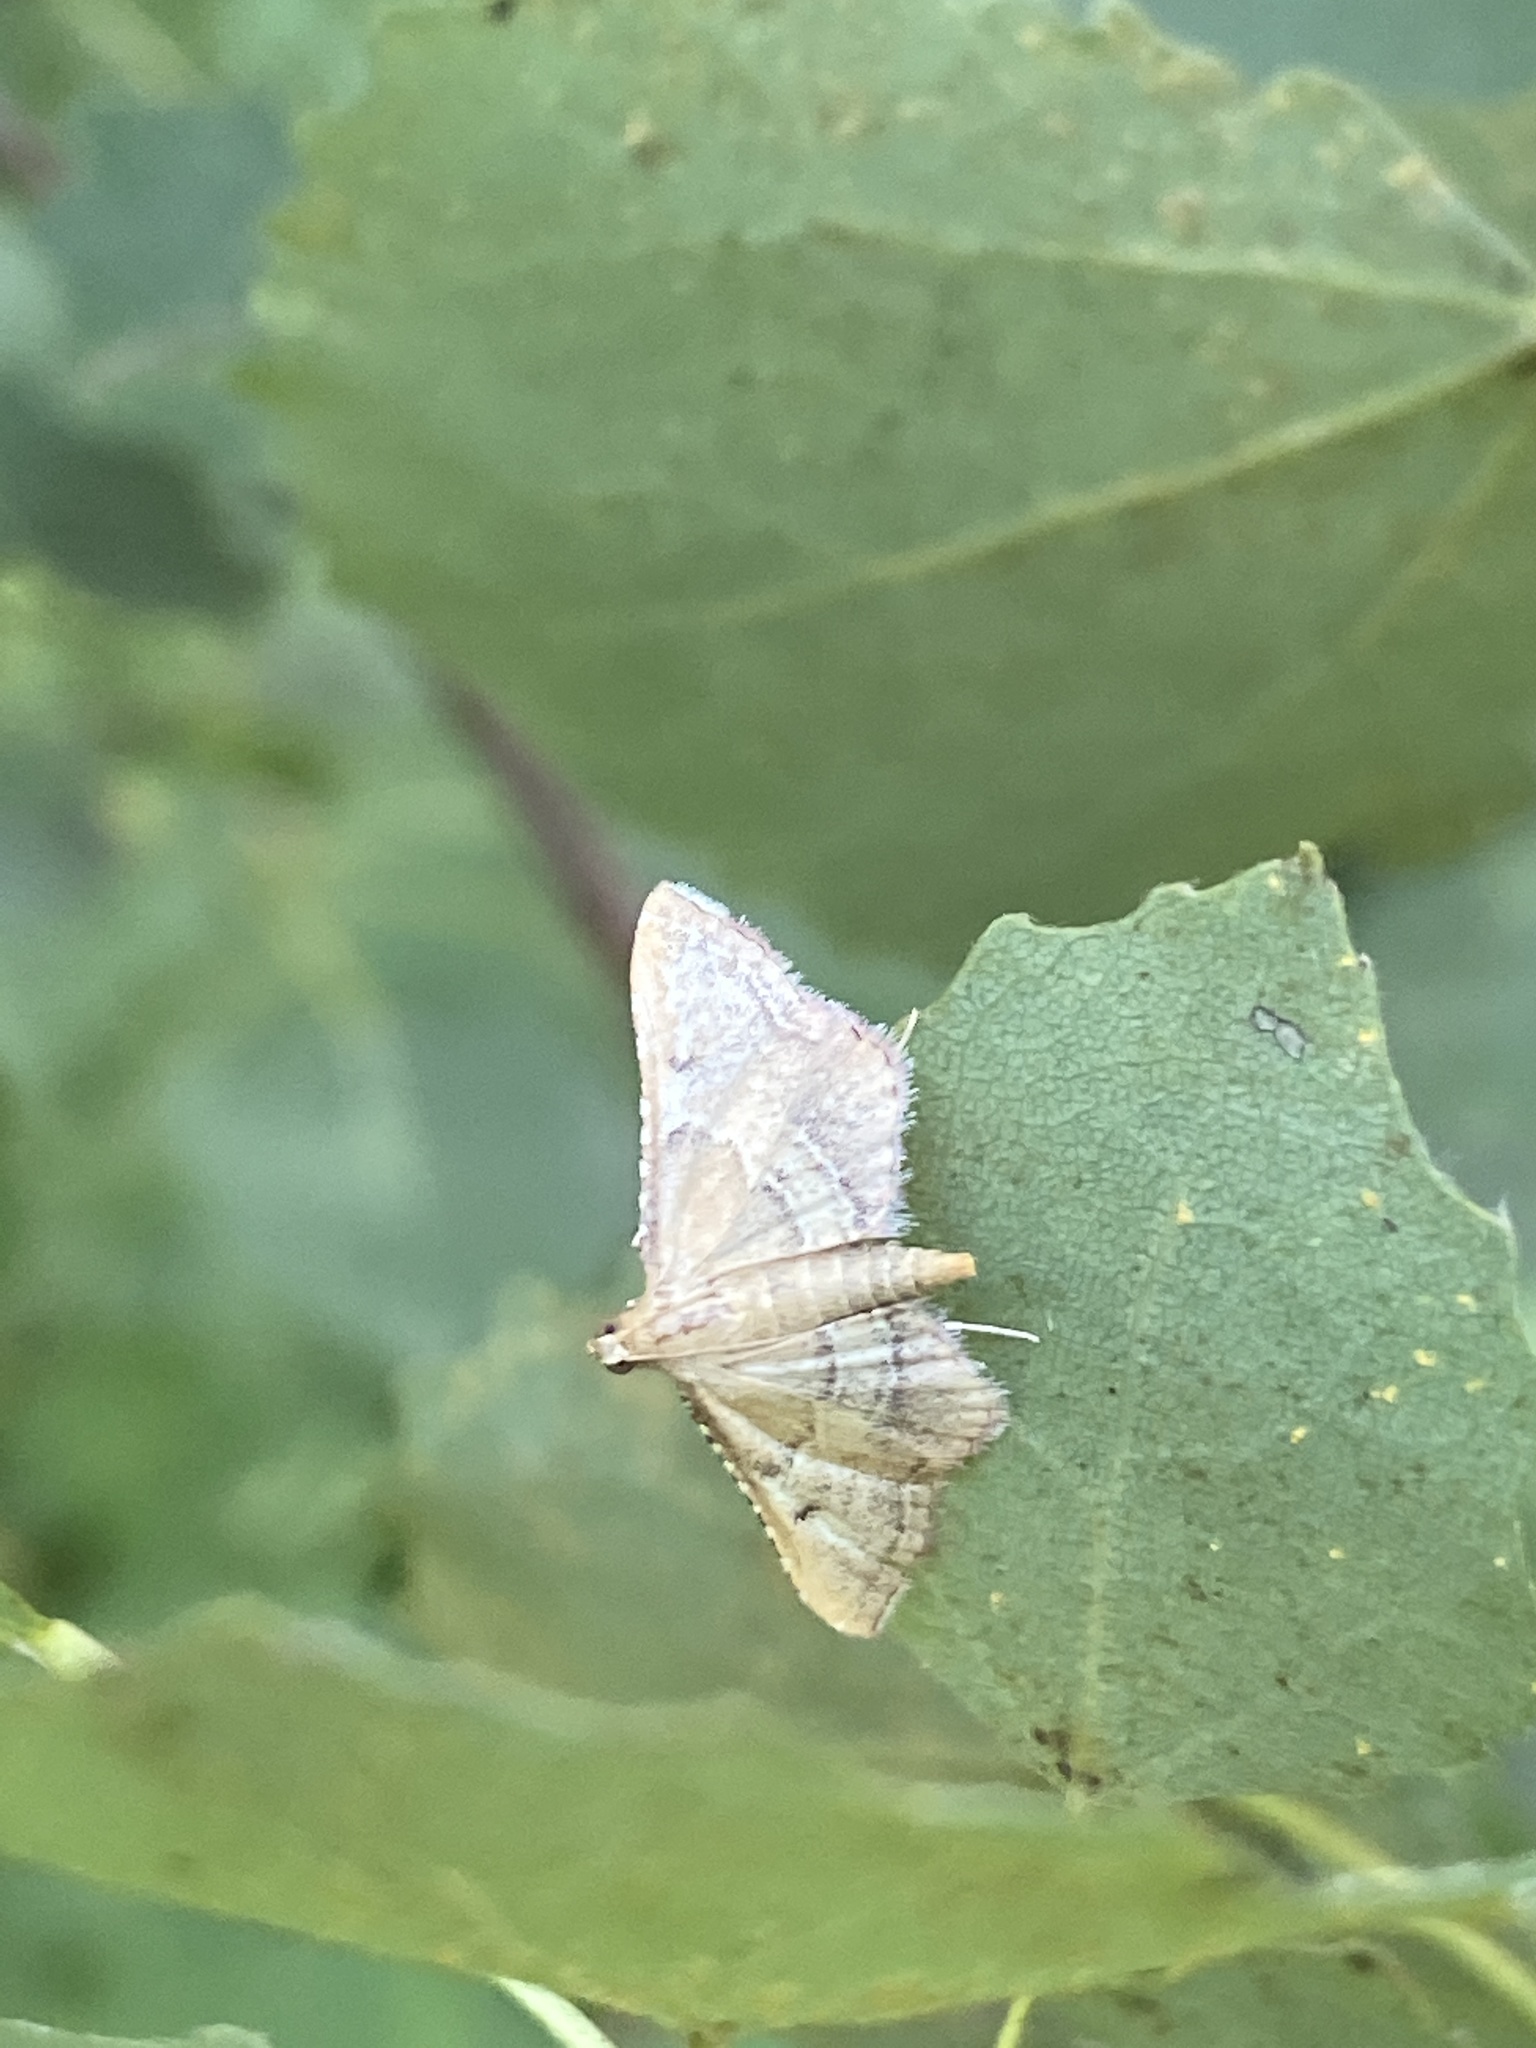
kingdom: Animalia
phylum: Arthropoda
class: Insecta
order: Lepidoptera
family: Pyralidae
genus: Endotricha
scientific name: Endotricha flammealis
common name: Rosy tabby
